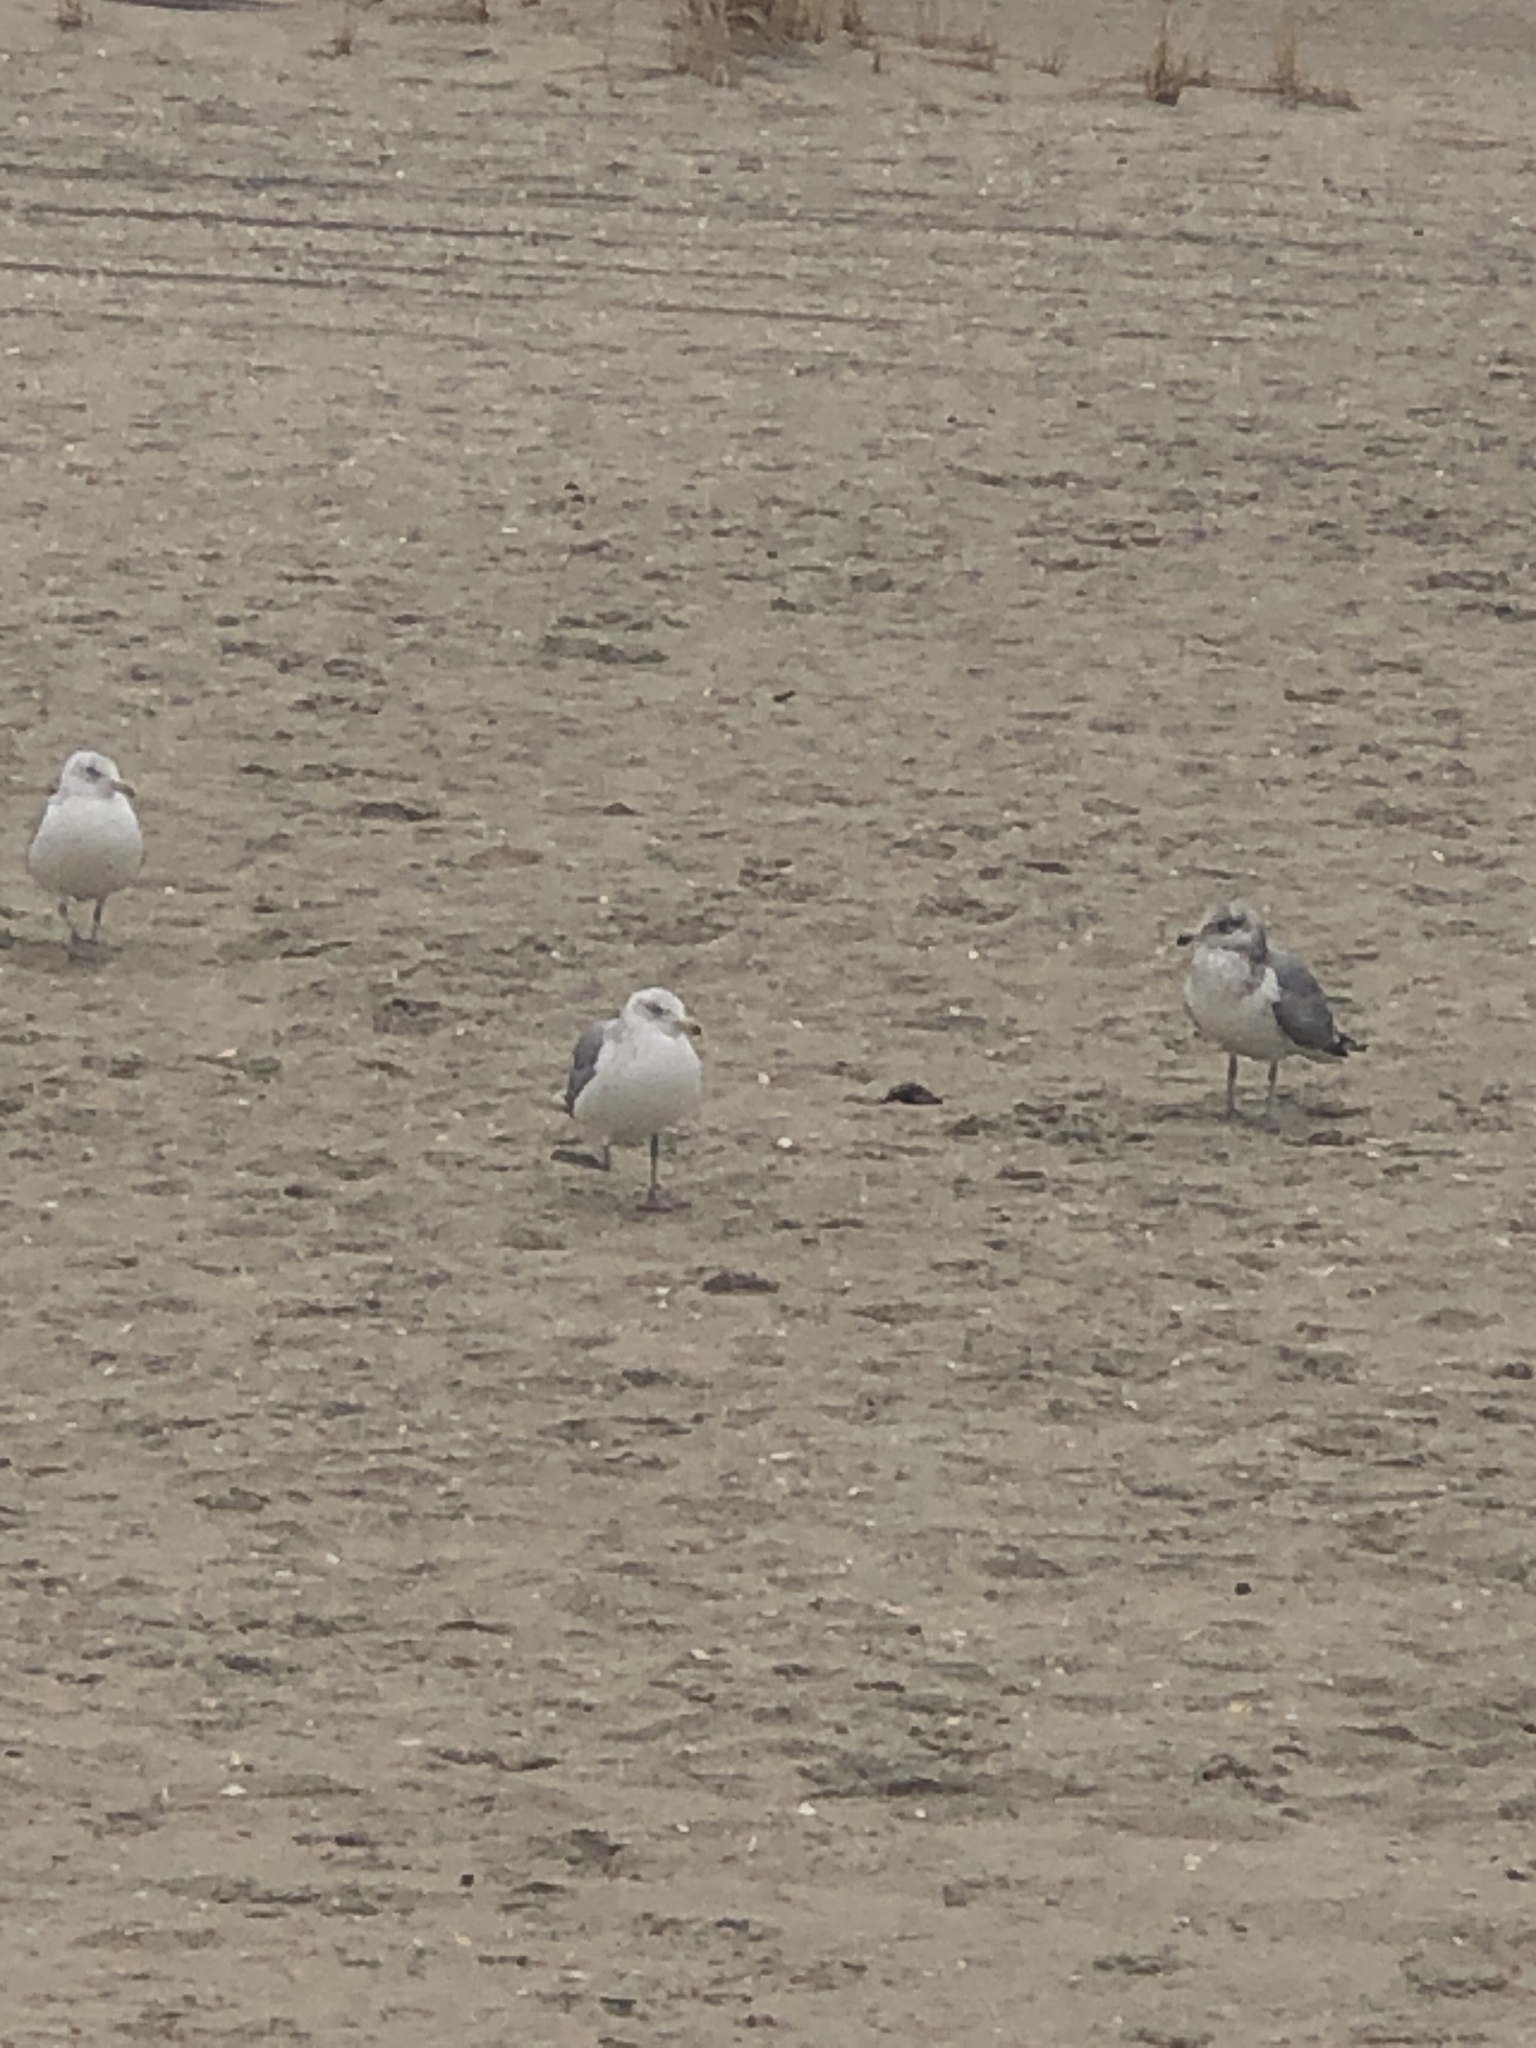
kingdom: Animalia
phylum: Chordata
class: Aves
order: Charadriiformes
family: Laridae
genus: Larus
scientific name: Larus delawarensis
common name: Ring-billed gull
